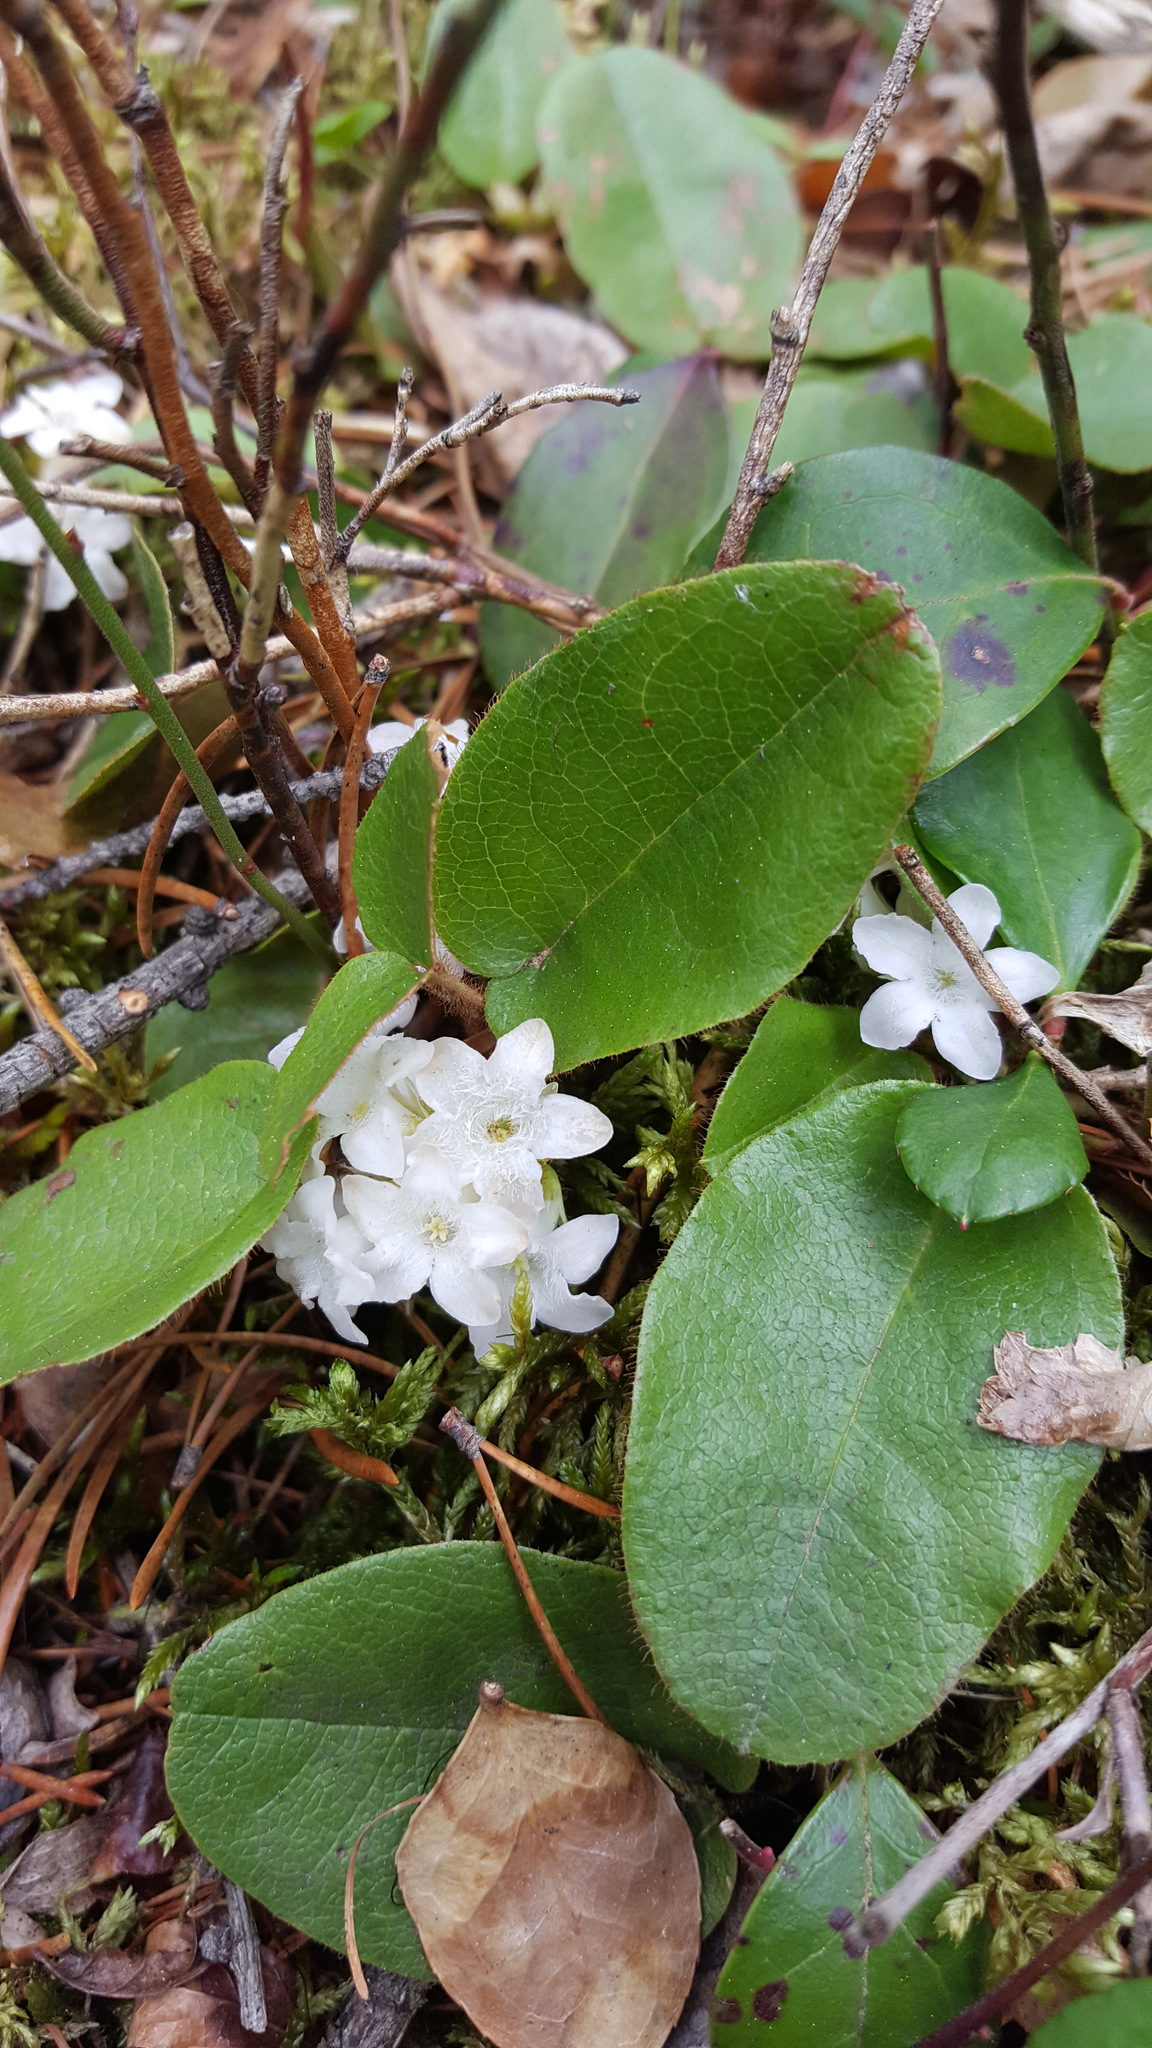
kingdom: Plantae
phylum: Tracheophyta
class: Magnoliopsida
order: Ericales
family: Ericaceae
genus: Epigaea
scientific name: Epigaea repens
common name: Gravelroot
